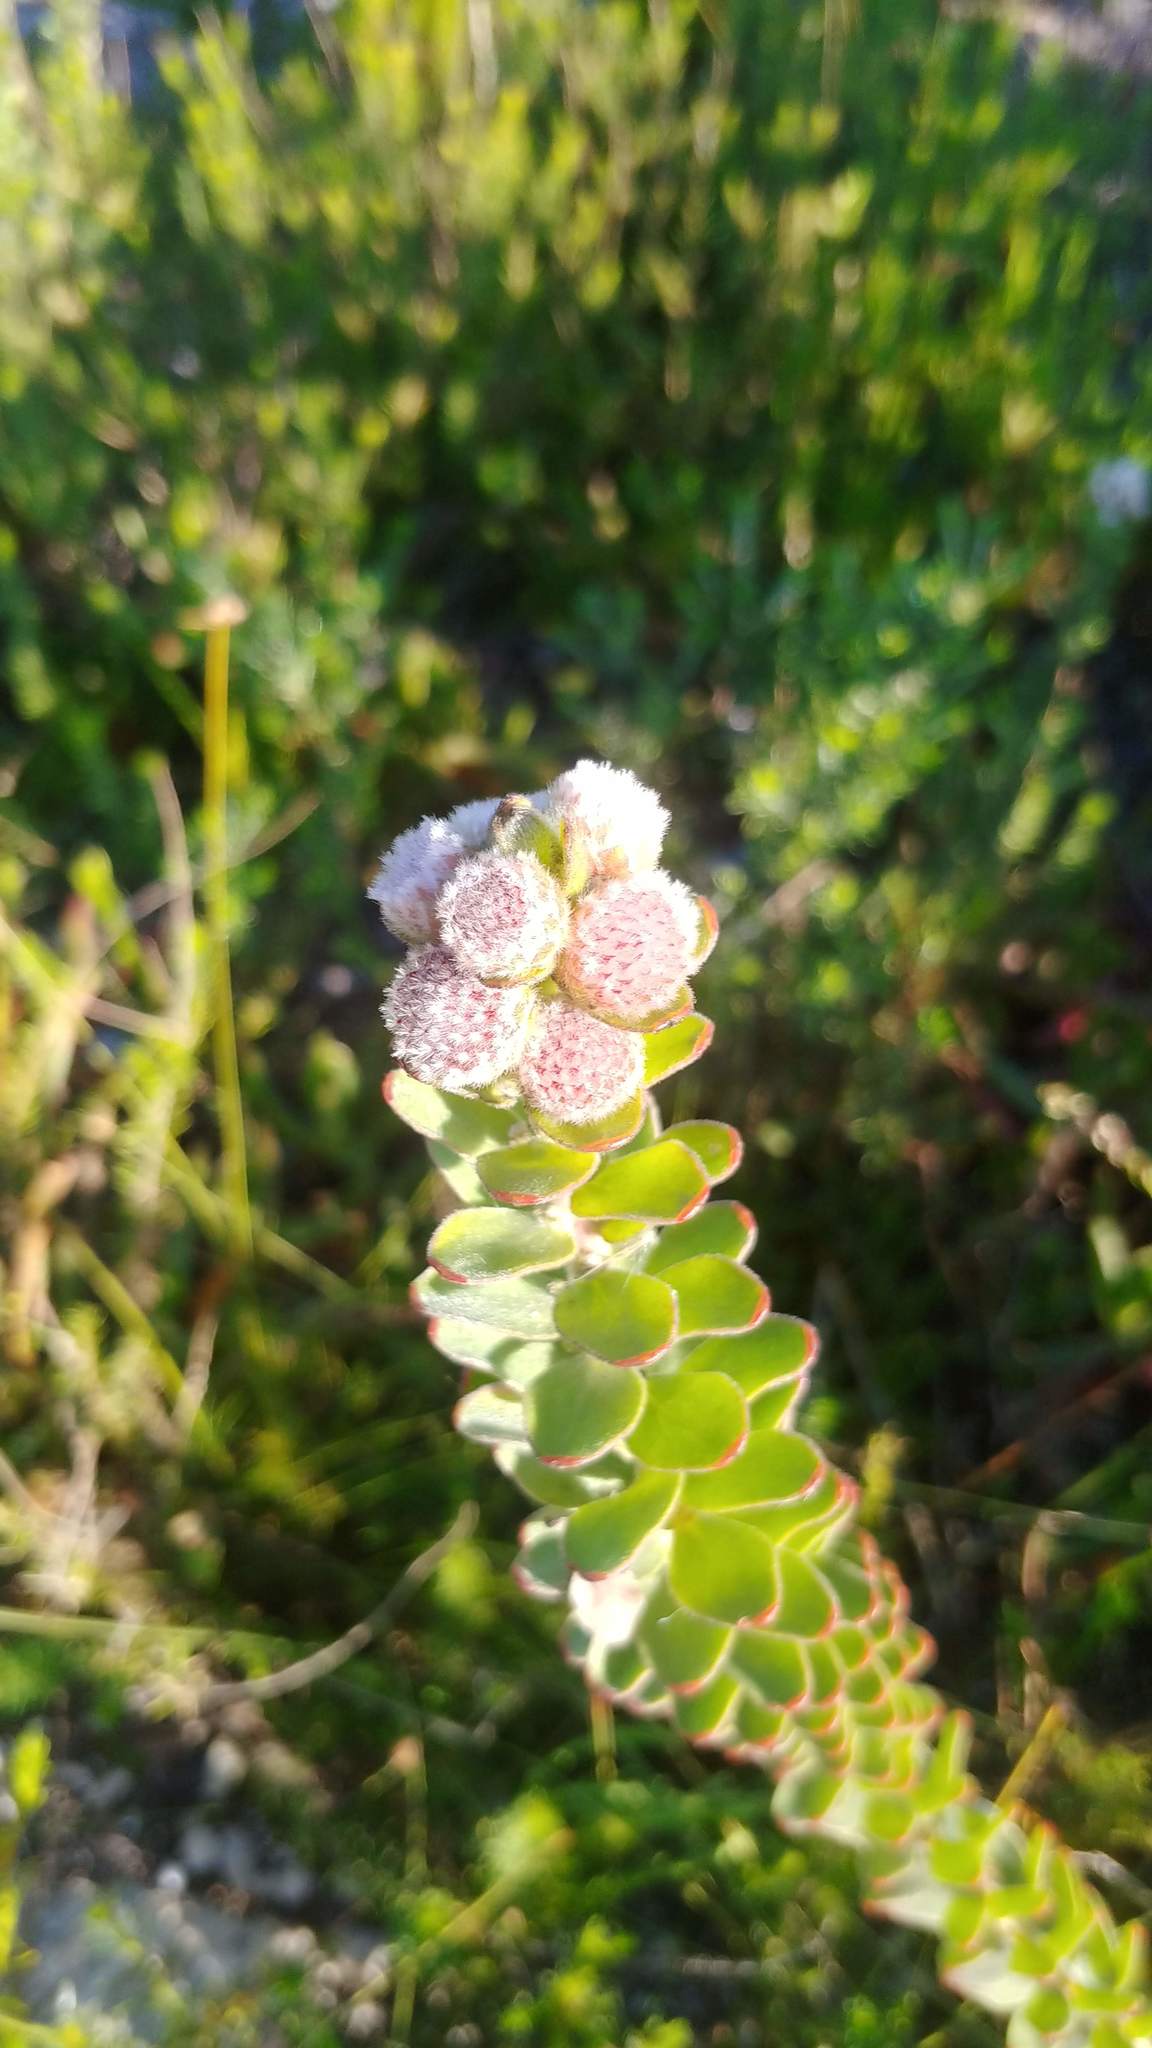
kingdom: Plantae
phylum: Tracheophyta
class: Magnoliopsida
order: Proteales
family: Proteaceae
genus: Leucospermum
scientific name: Leucospermum truncatulum
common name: Oval-leaf pincushion
